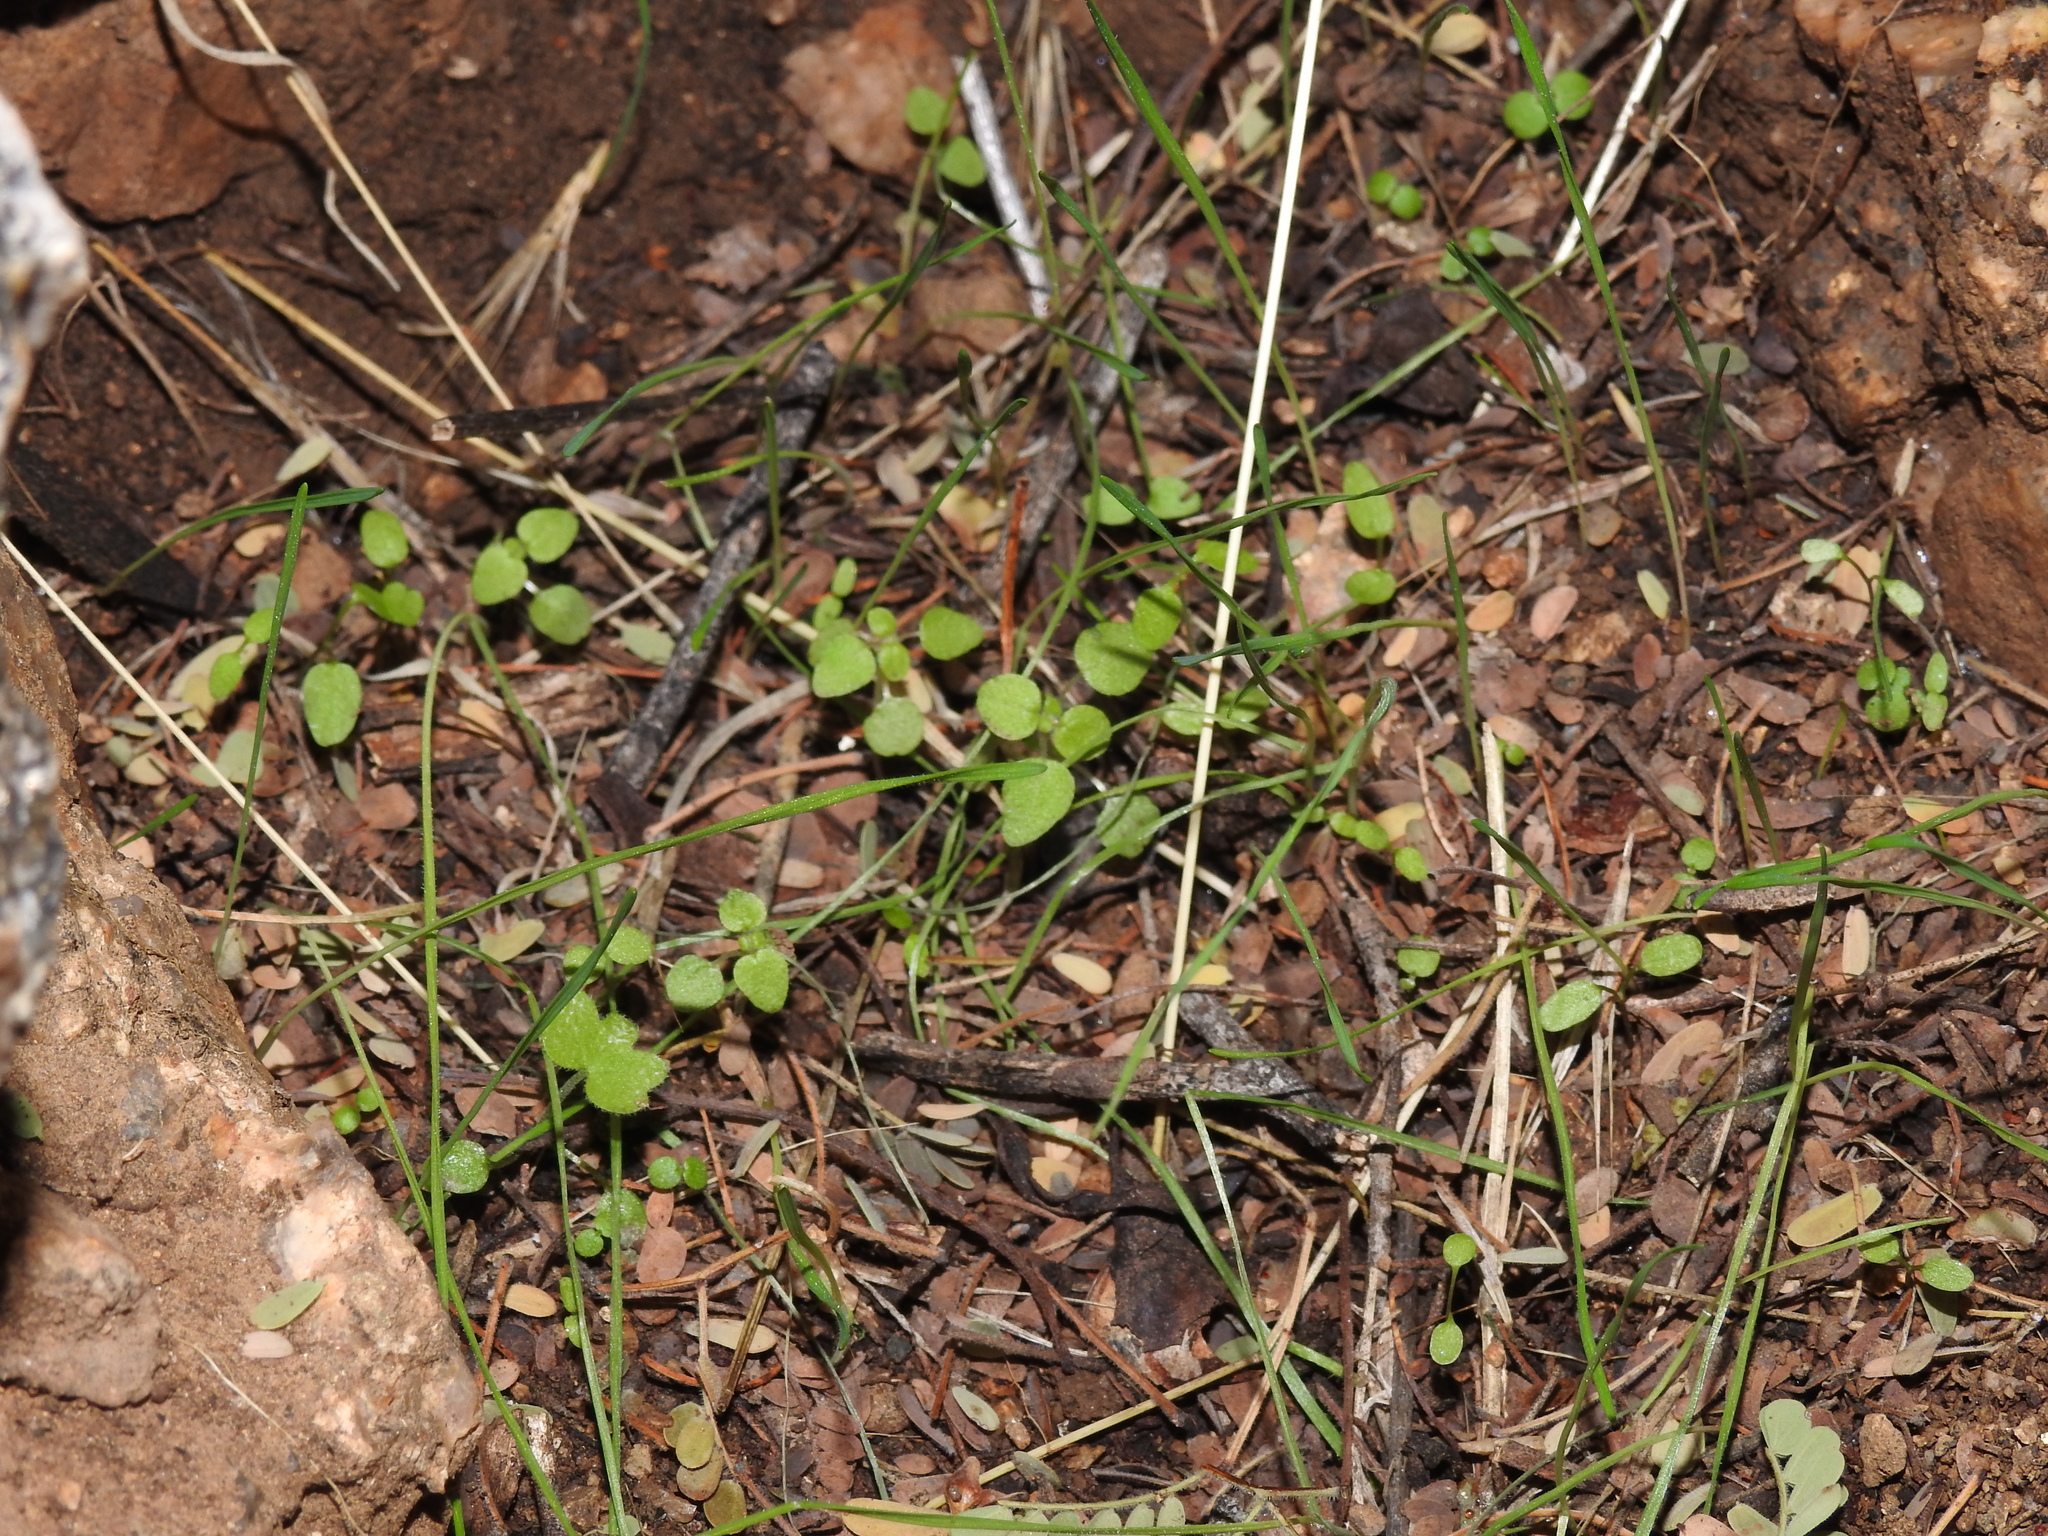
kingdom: Plantae
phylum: Tracheophyta
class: Magnoliopsida
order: Rosales
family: Urticaceae
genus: Parietaria
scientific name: Parietaria hespera
